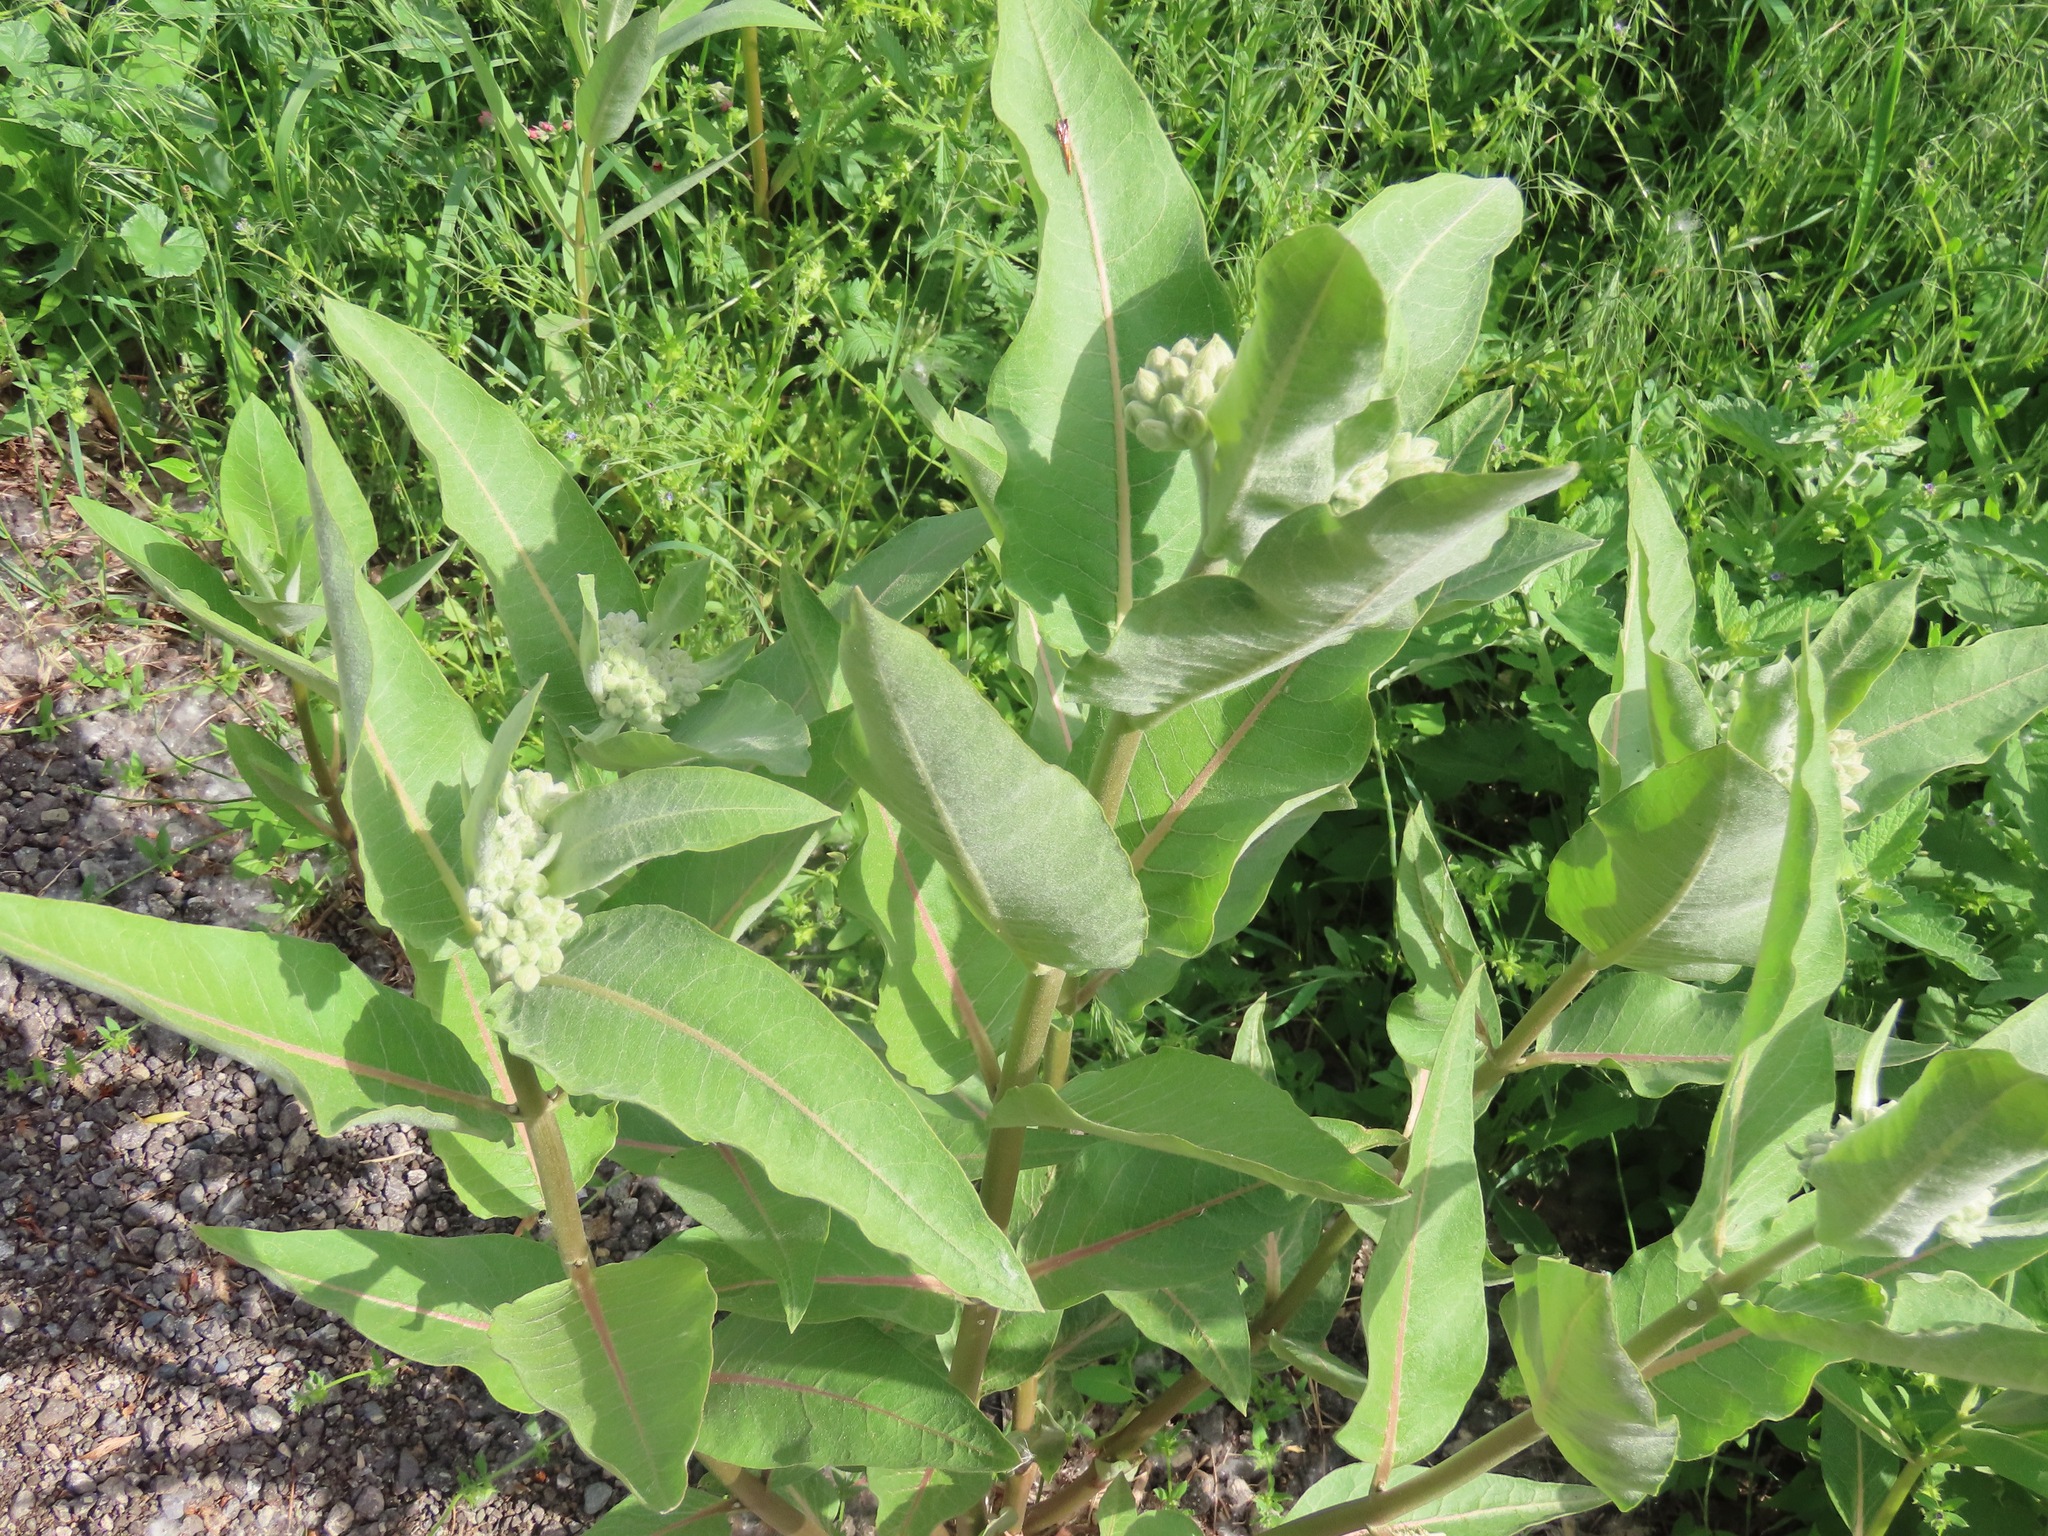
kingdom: Plantae
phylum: Tracheophyta
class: Magnoliopsida
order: Gentianales
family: Apocynaceae
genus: Asclepias
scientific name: Asclepias speciosa
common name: Showy milkweed
